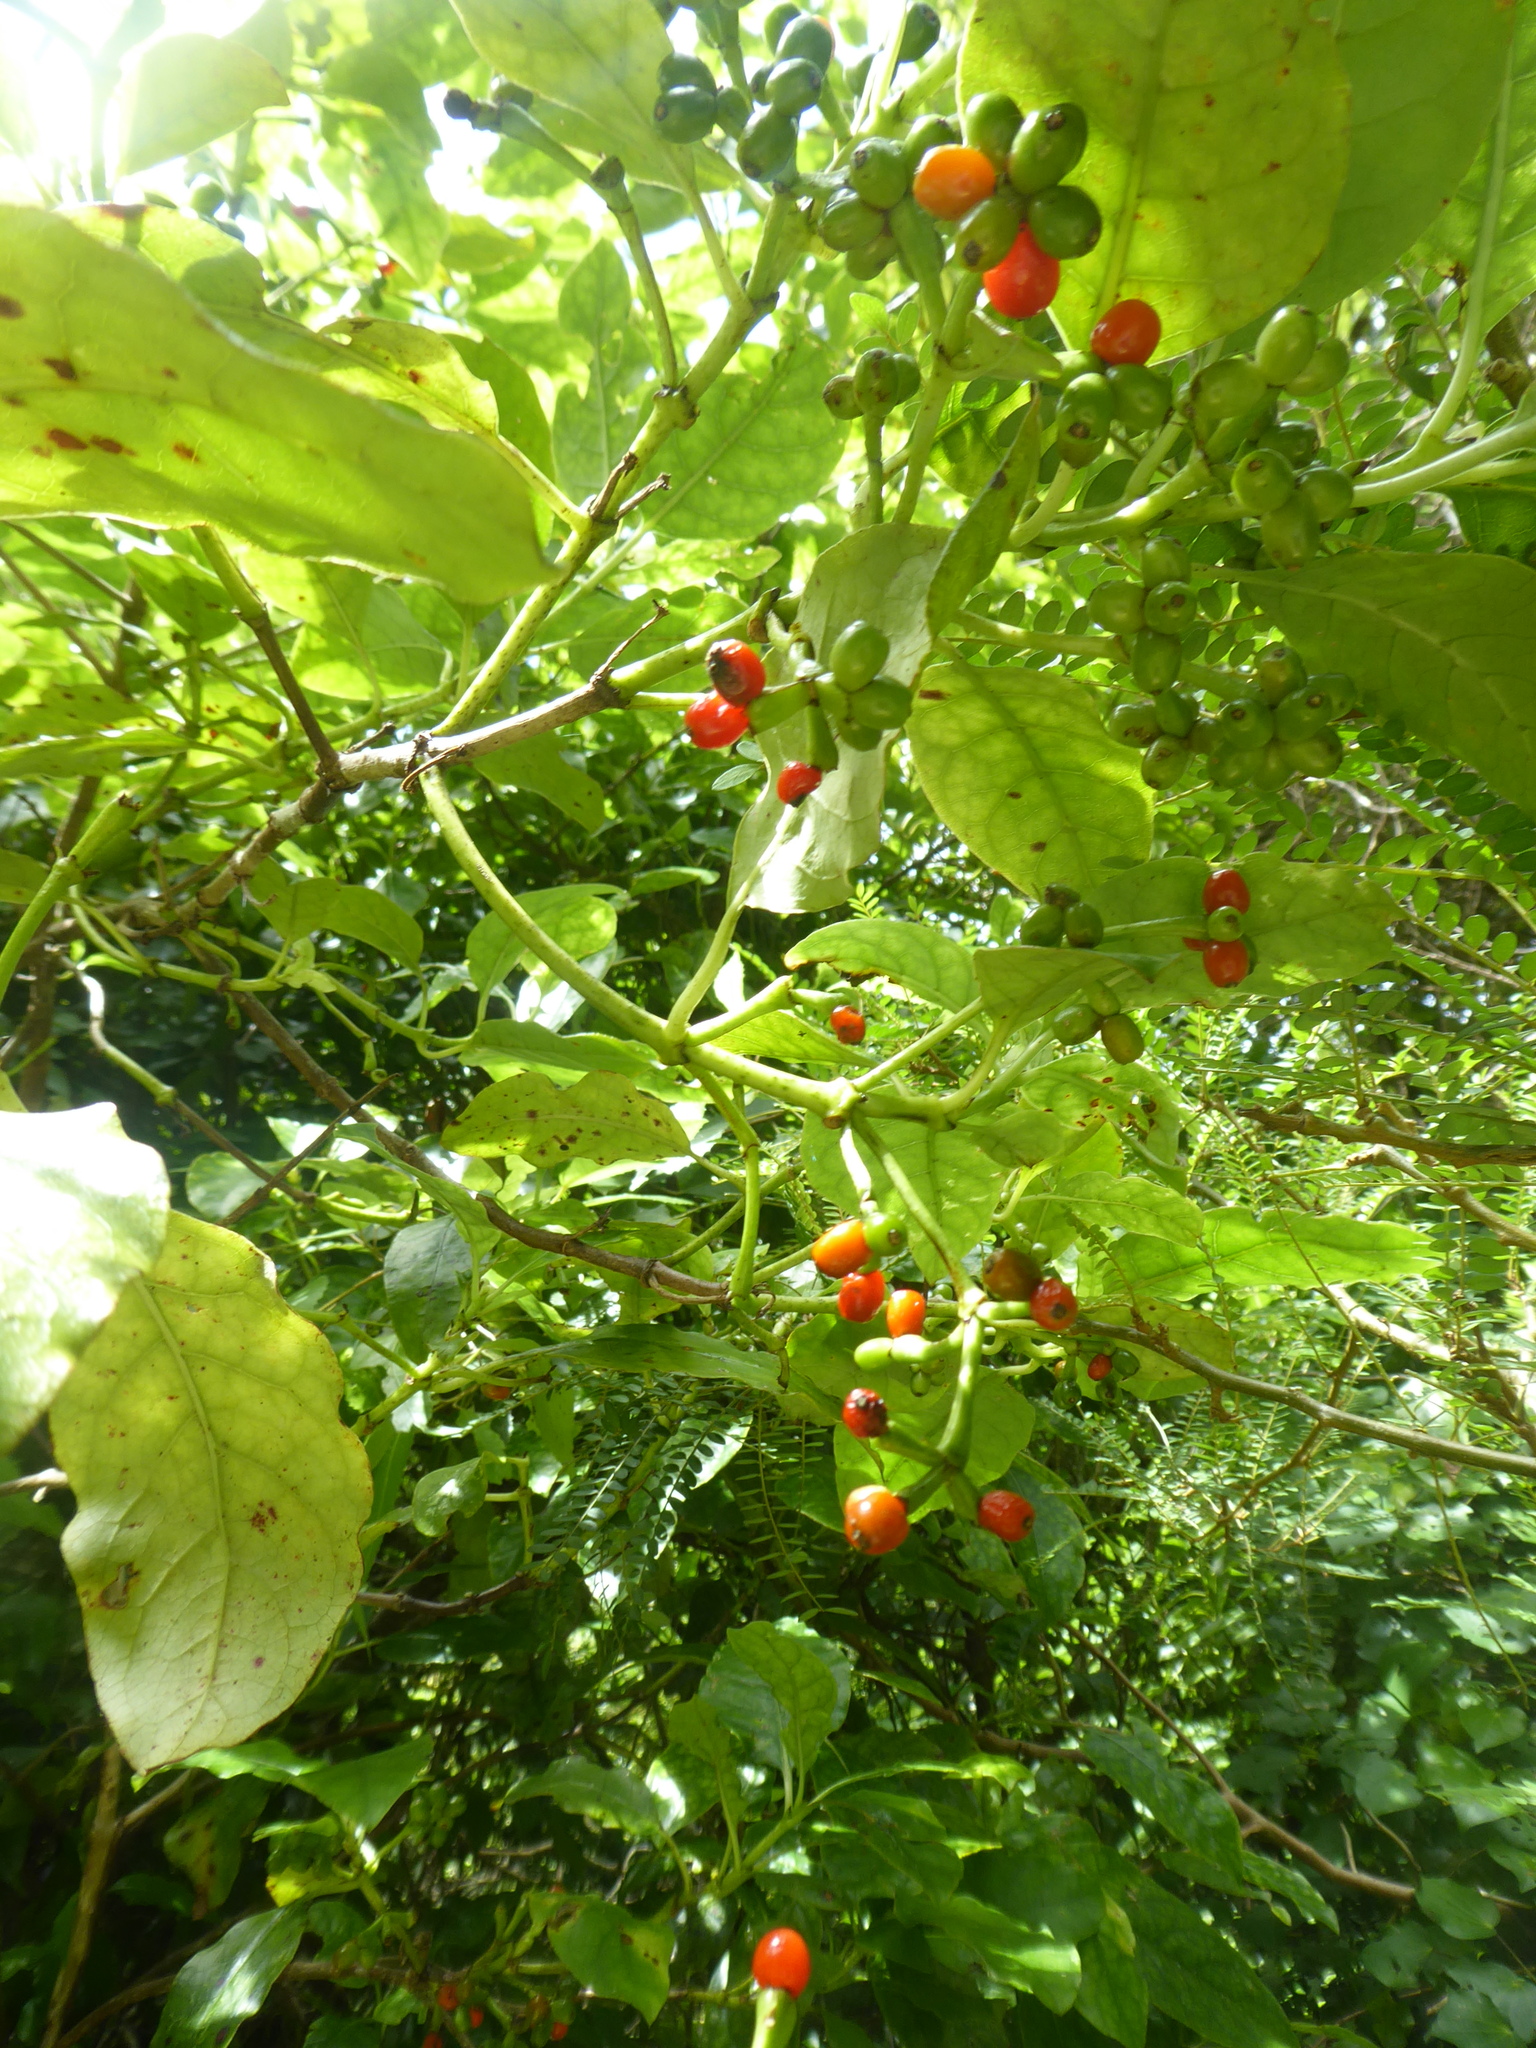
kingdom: Plantae
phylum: Tracheophyta
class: Magnoliopsida
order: Gentianales
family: Rubiaceae
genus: Coprosma
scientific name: Coprosma autumnalis
